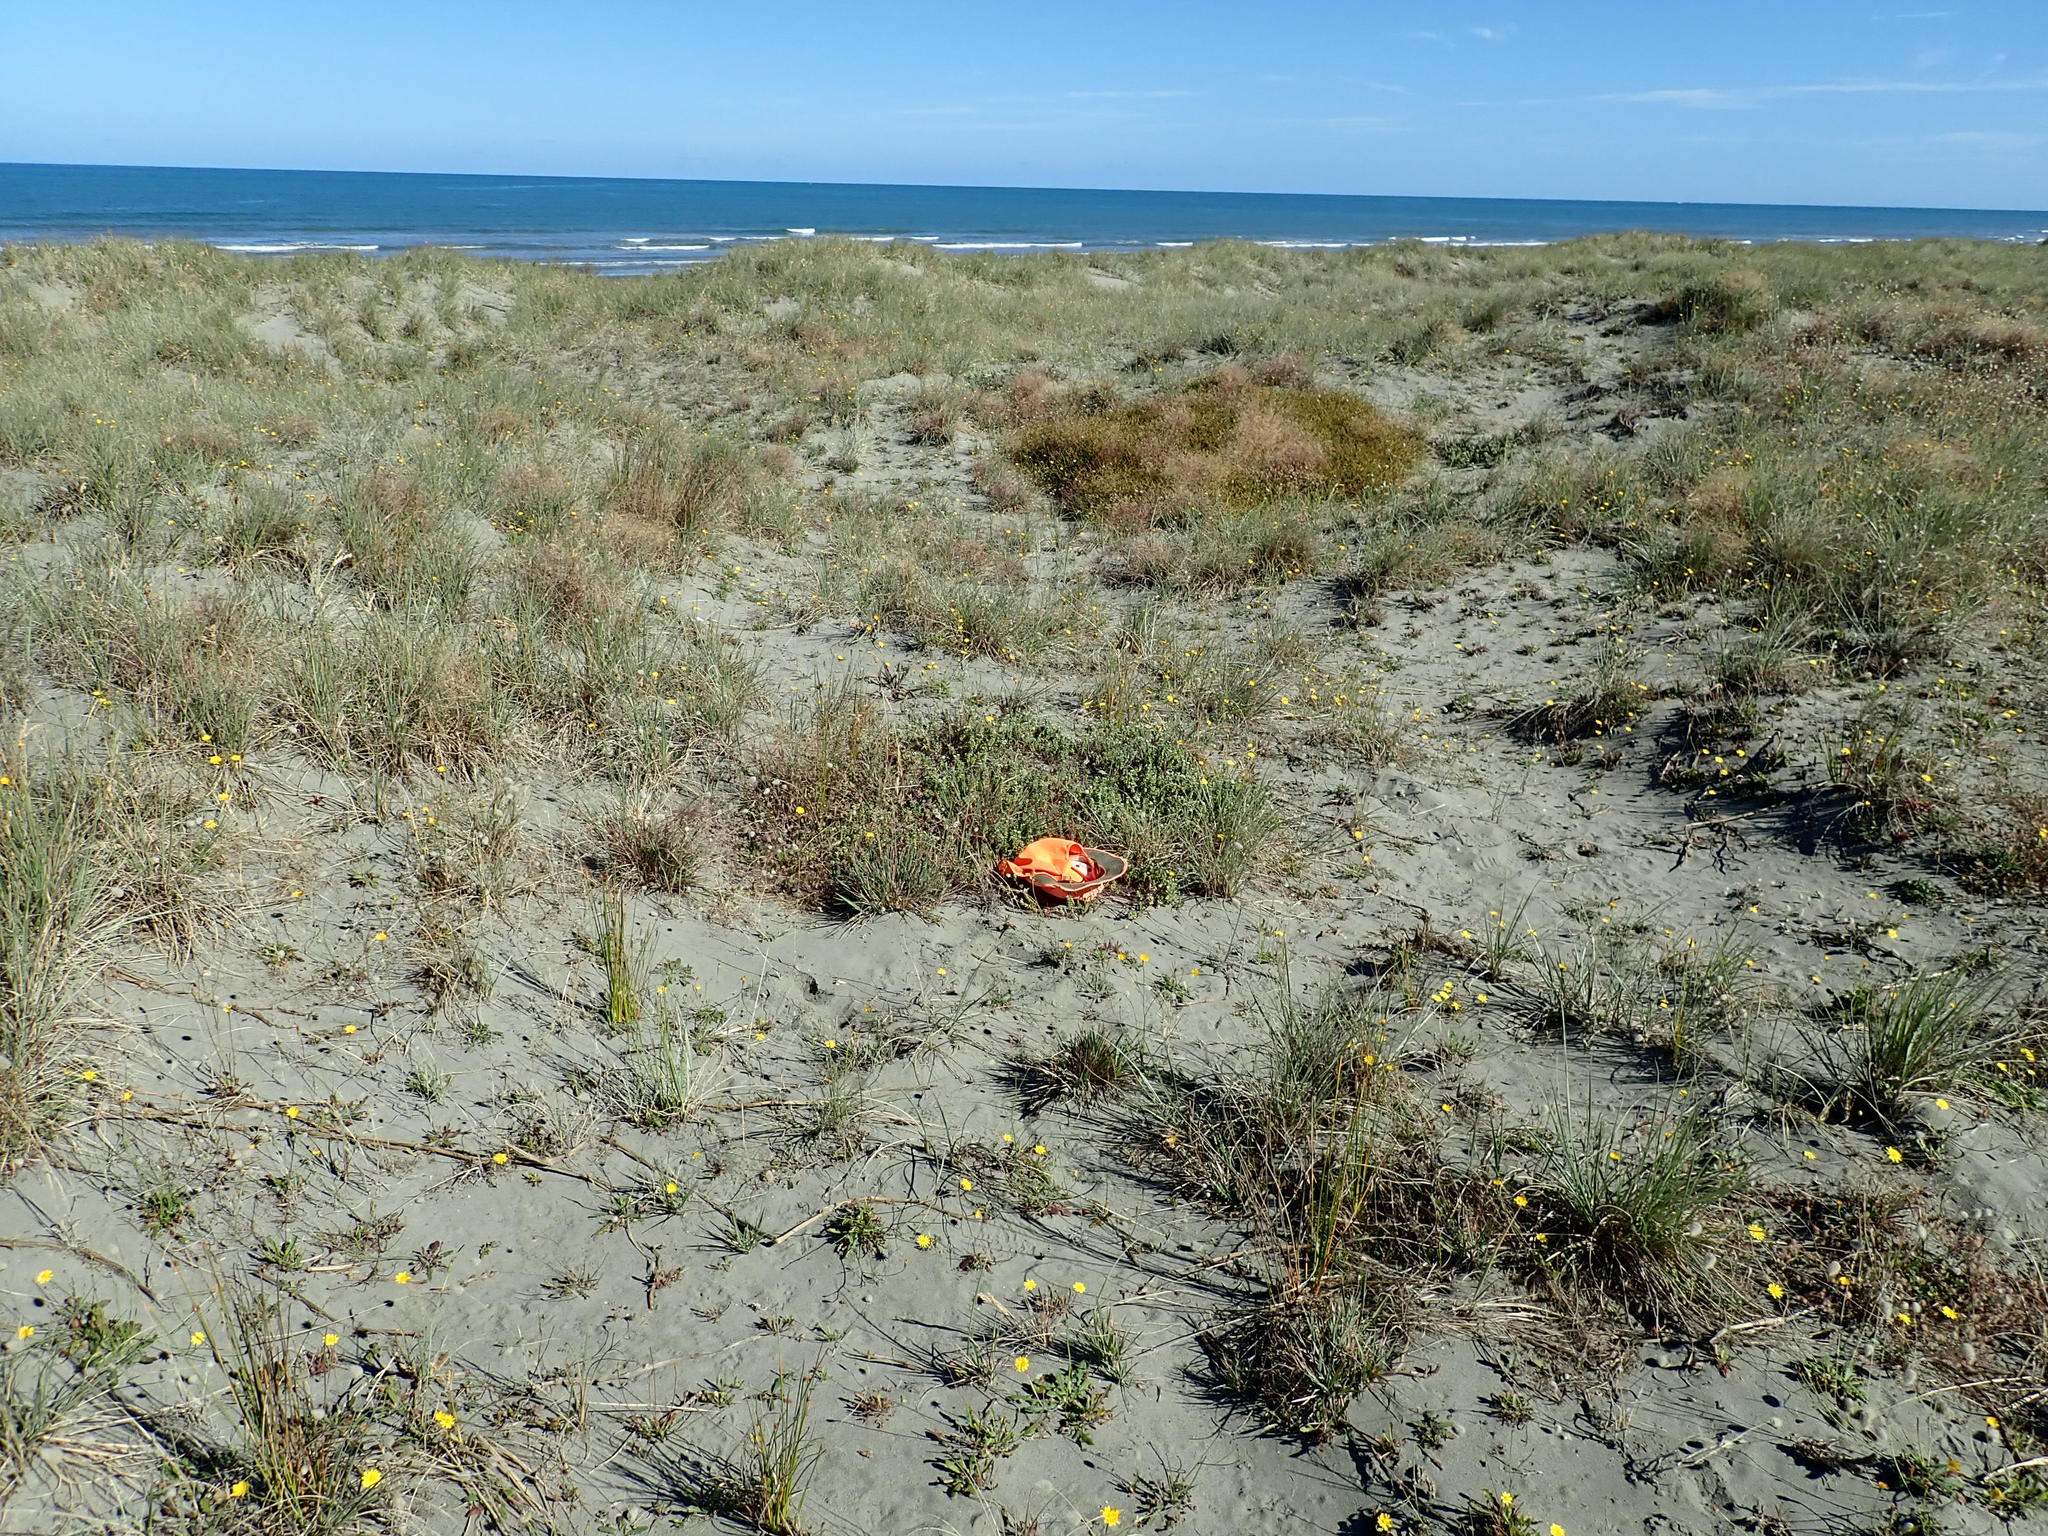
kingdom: Plantae
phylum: Tracheophyta
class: Magnoliopsida
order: Malvales
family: Thymelaeaceae
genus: Pimelea
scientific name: Pimelea villosa
